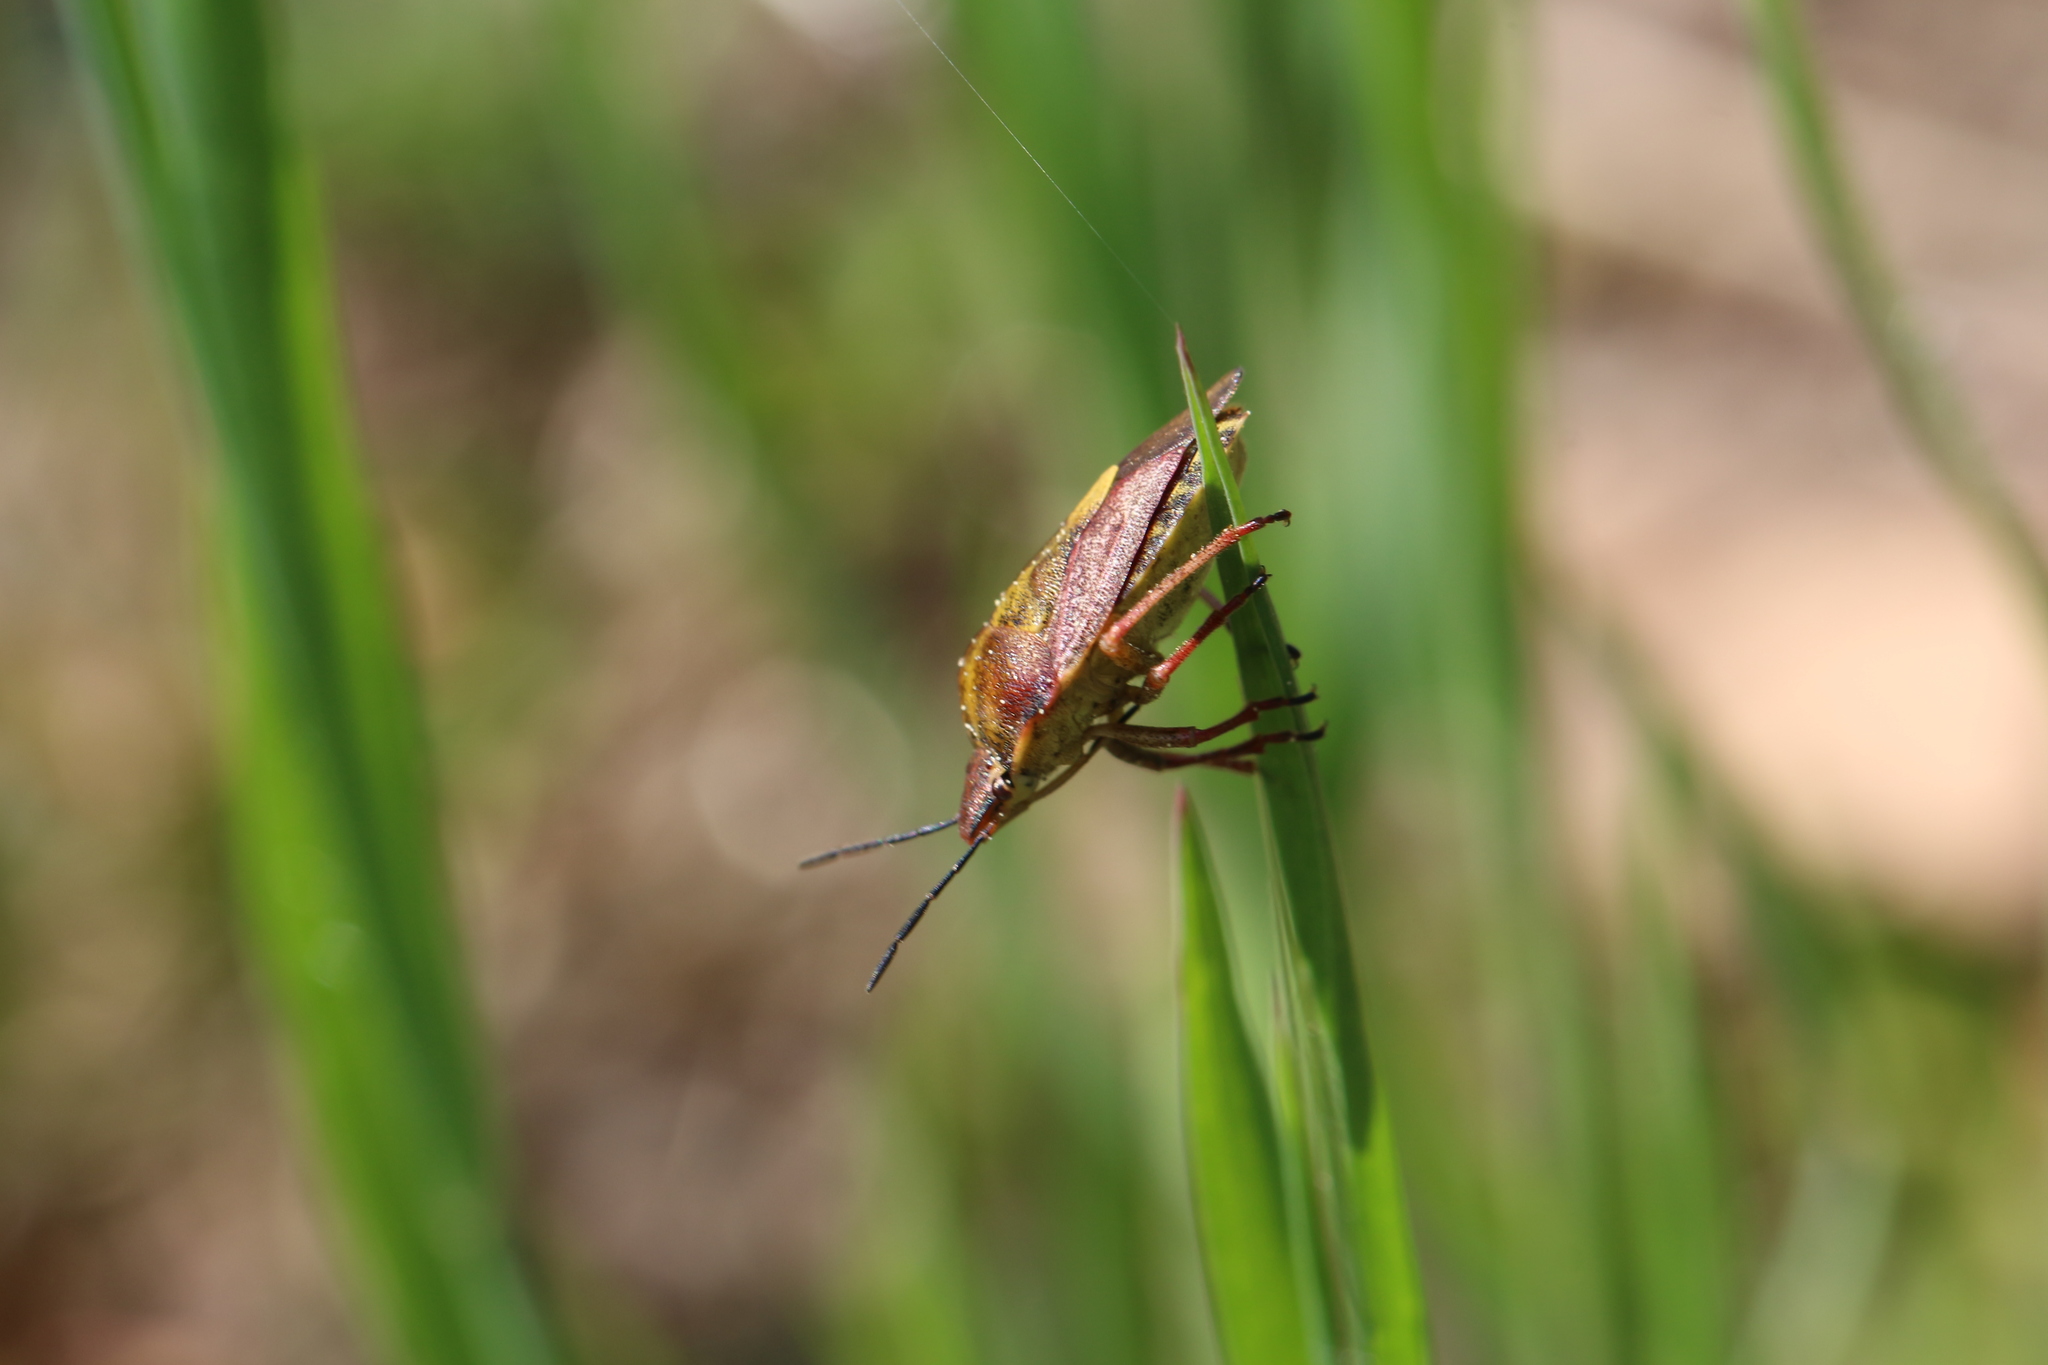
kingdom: Animalia
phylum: Arthropoda
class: Insecta
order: Hemiptera
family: Pentatomidae
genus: Carpocoris
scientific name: Carpocoris purpureipennis
